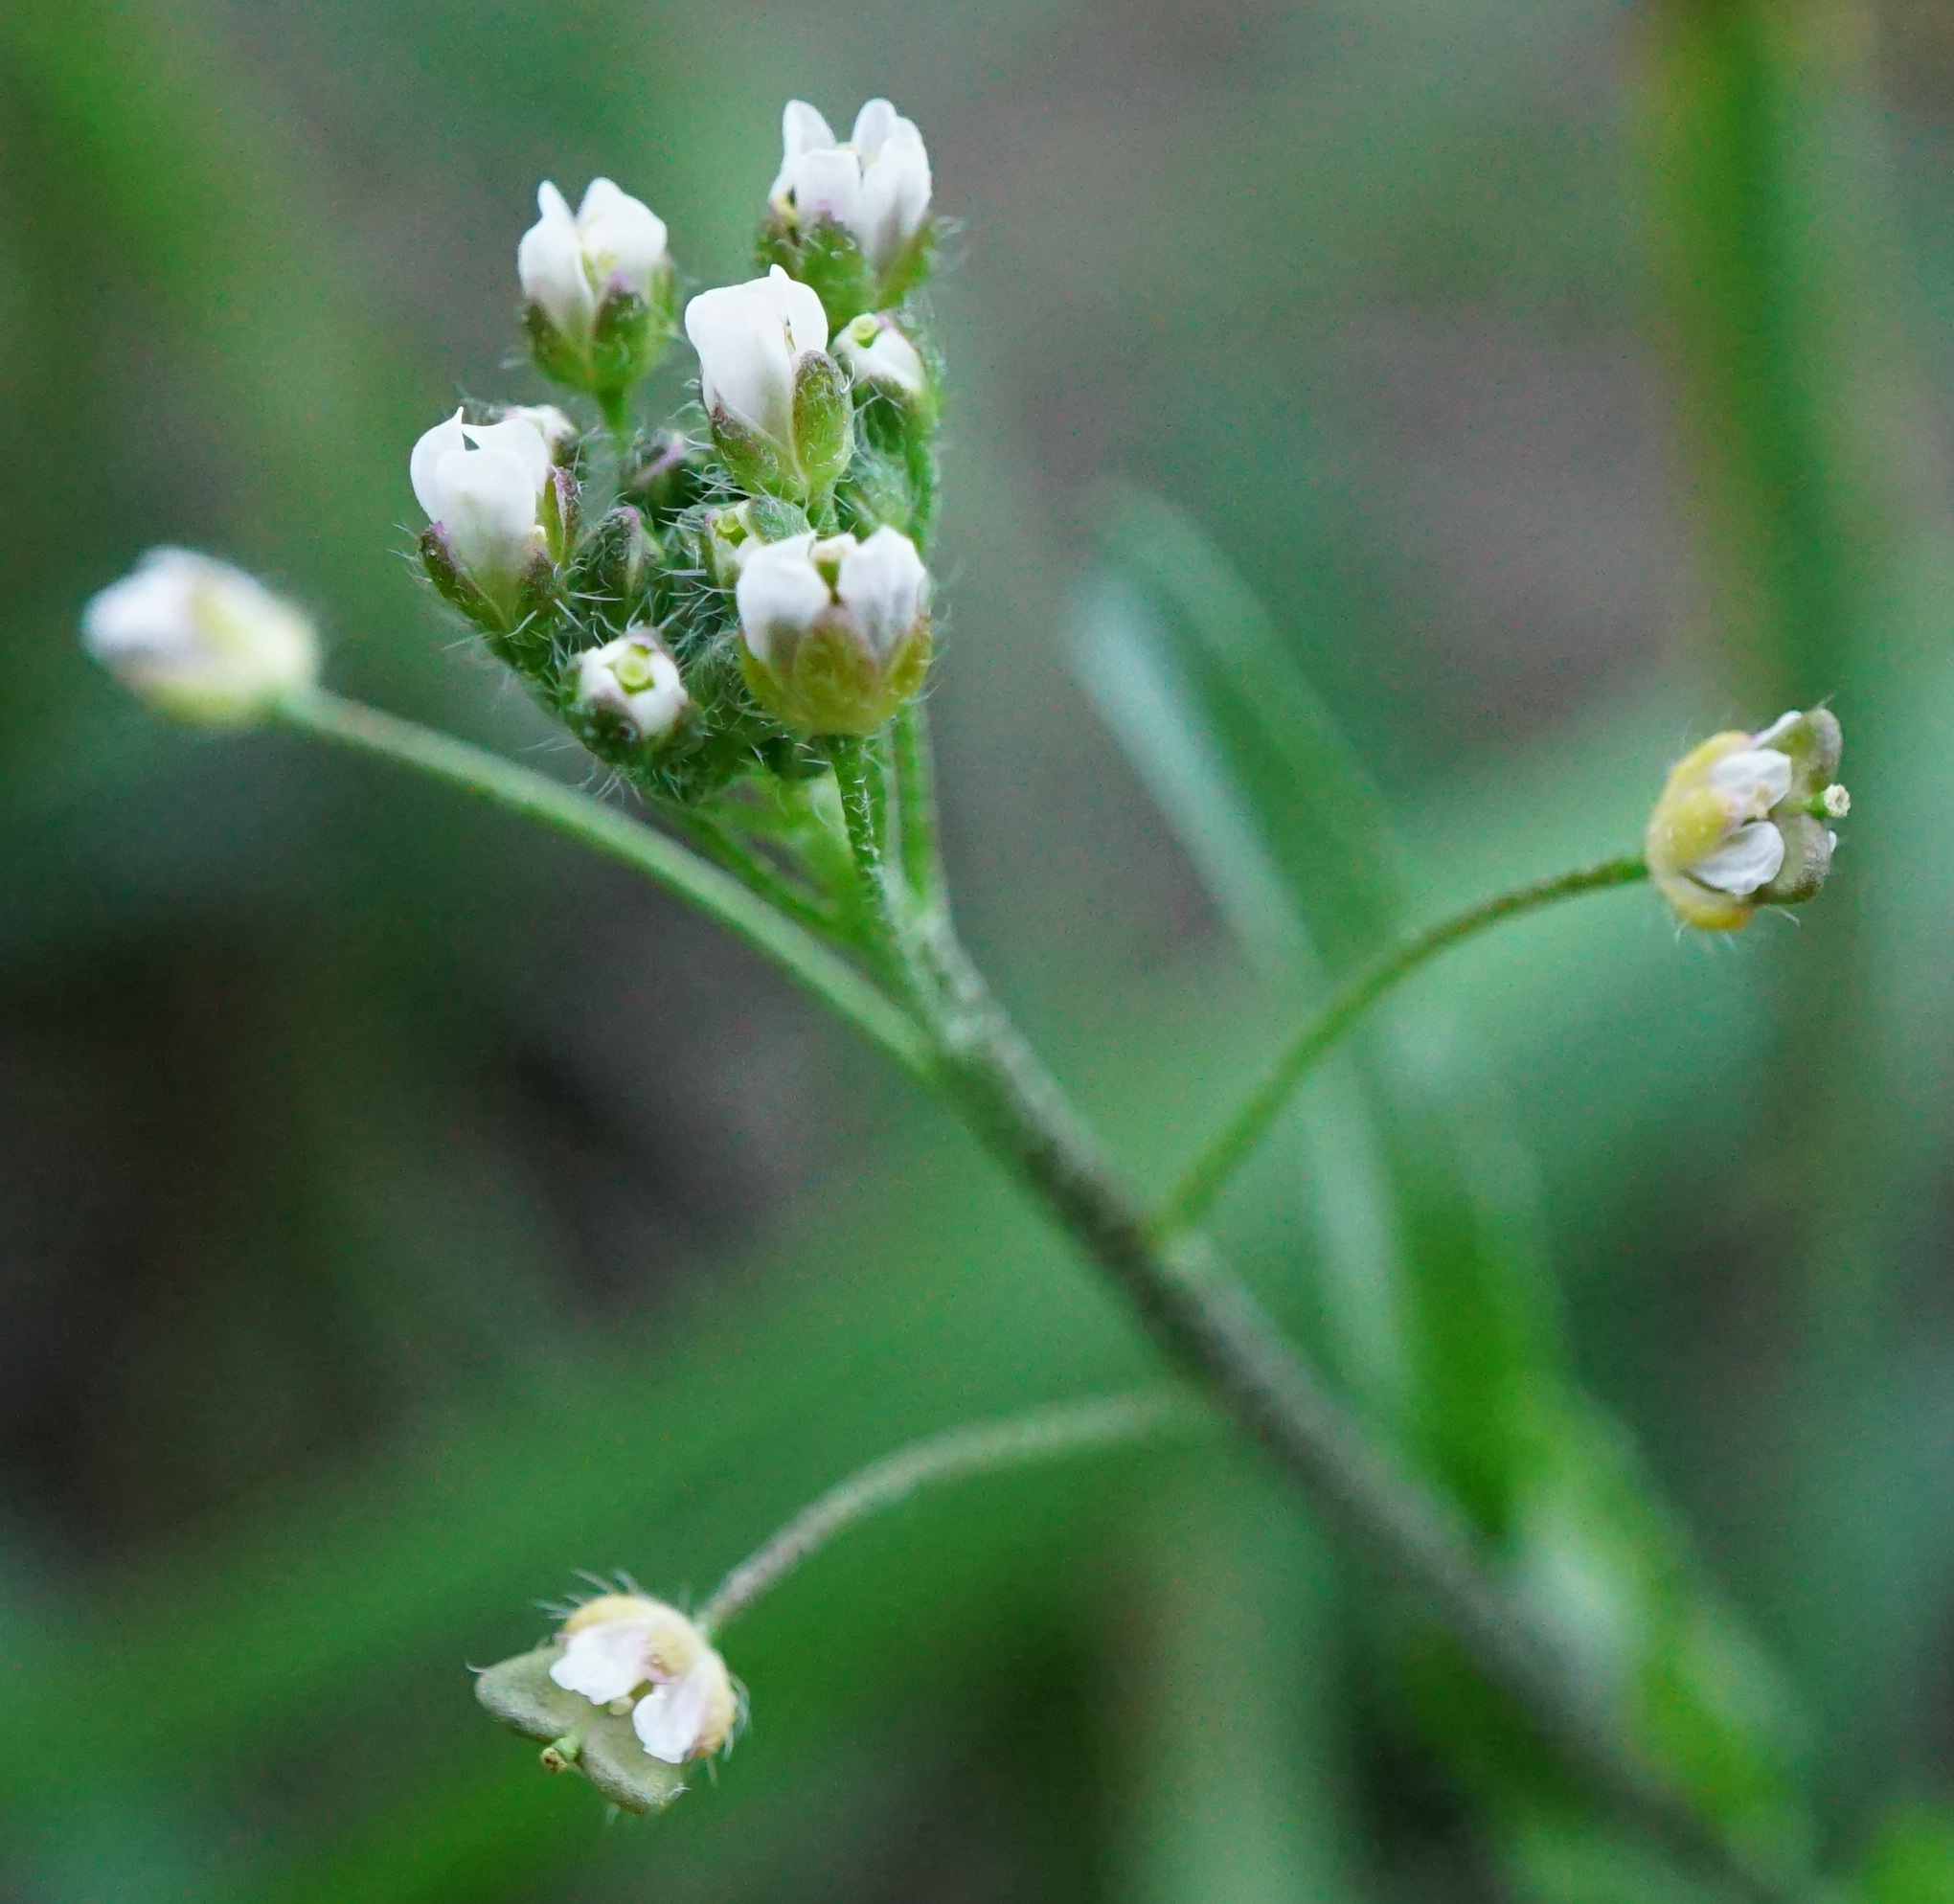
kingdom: Plantae
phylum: Tracheophyta
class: Magnoliopsida
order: Brassicales
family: Brassicaceae
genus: Capsella
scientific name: Capsella bursa-pastoris
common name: Shepherd's purse
